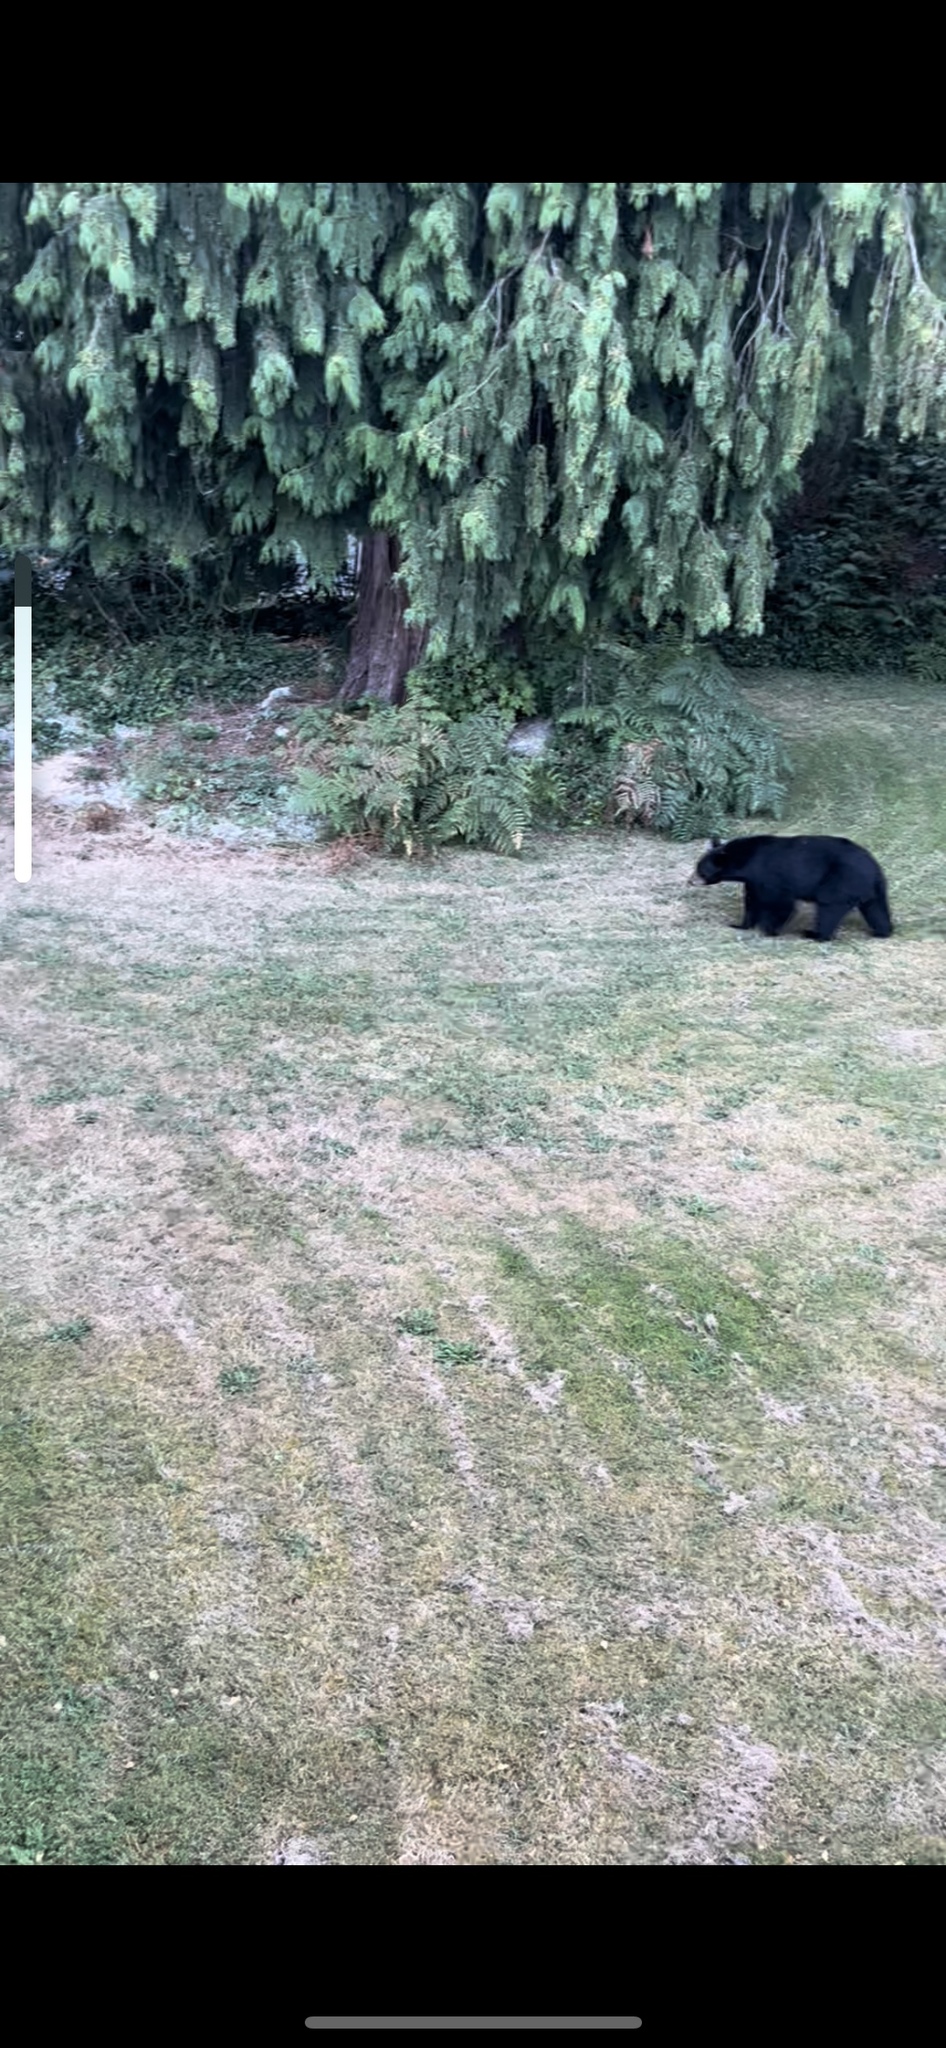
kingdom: Animalia
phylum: Chordata
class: Mammalia
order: Carnivora
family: Ursidae
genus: Ursus
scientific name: Ursus americanus
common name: American black bear
